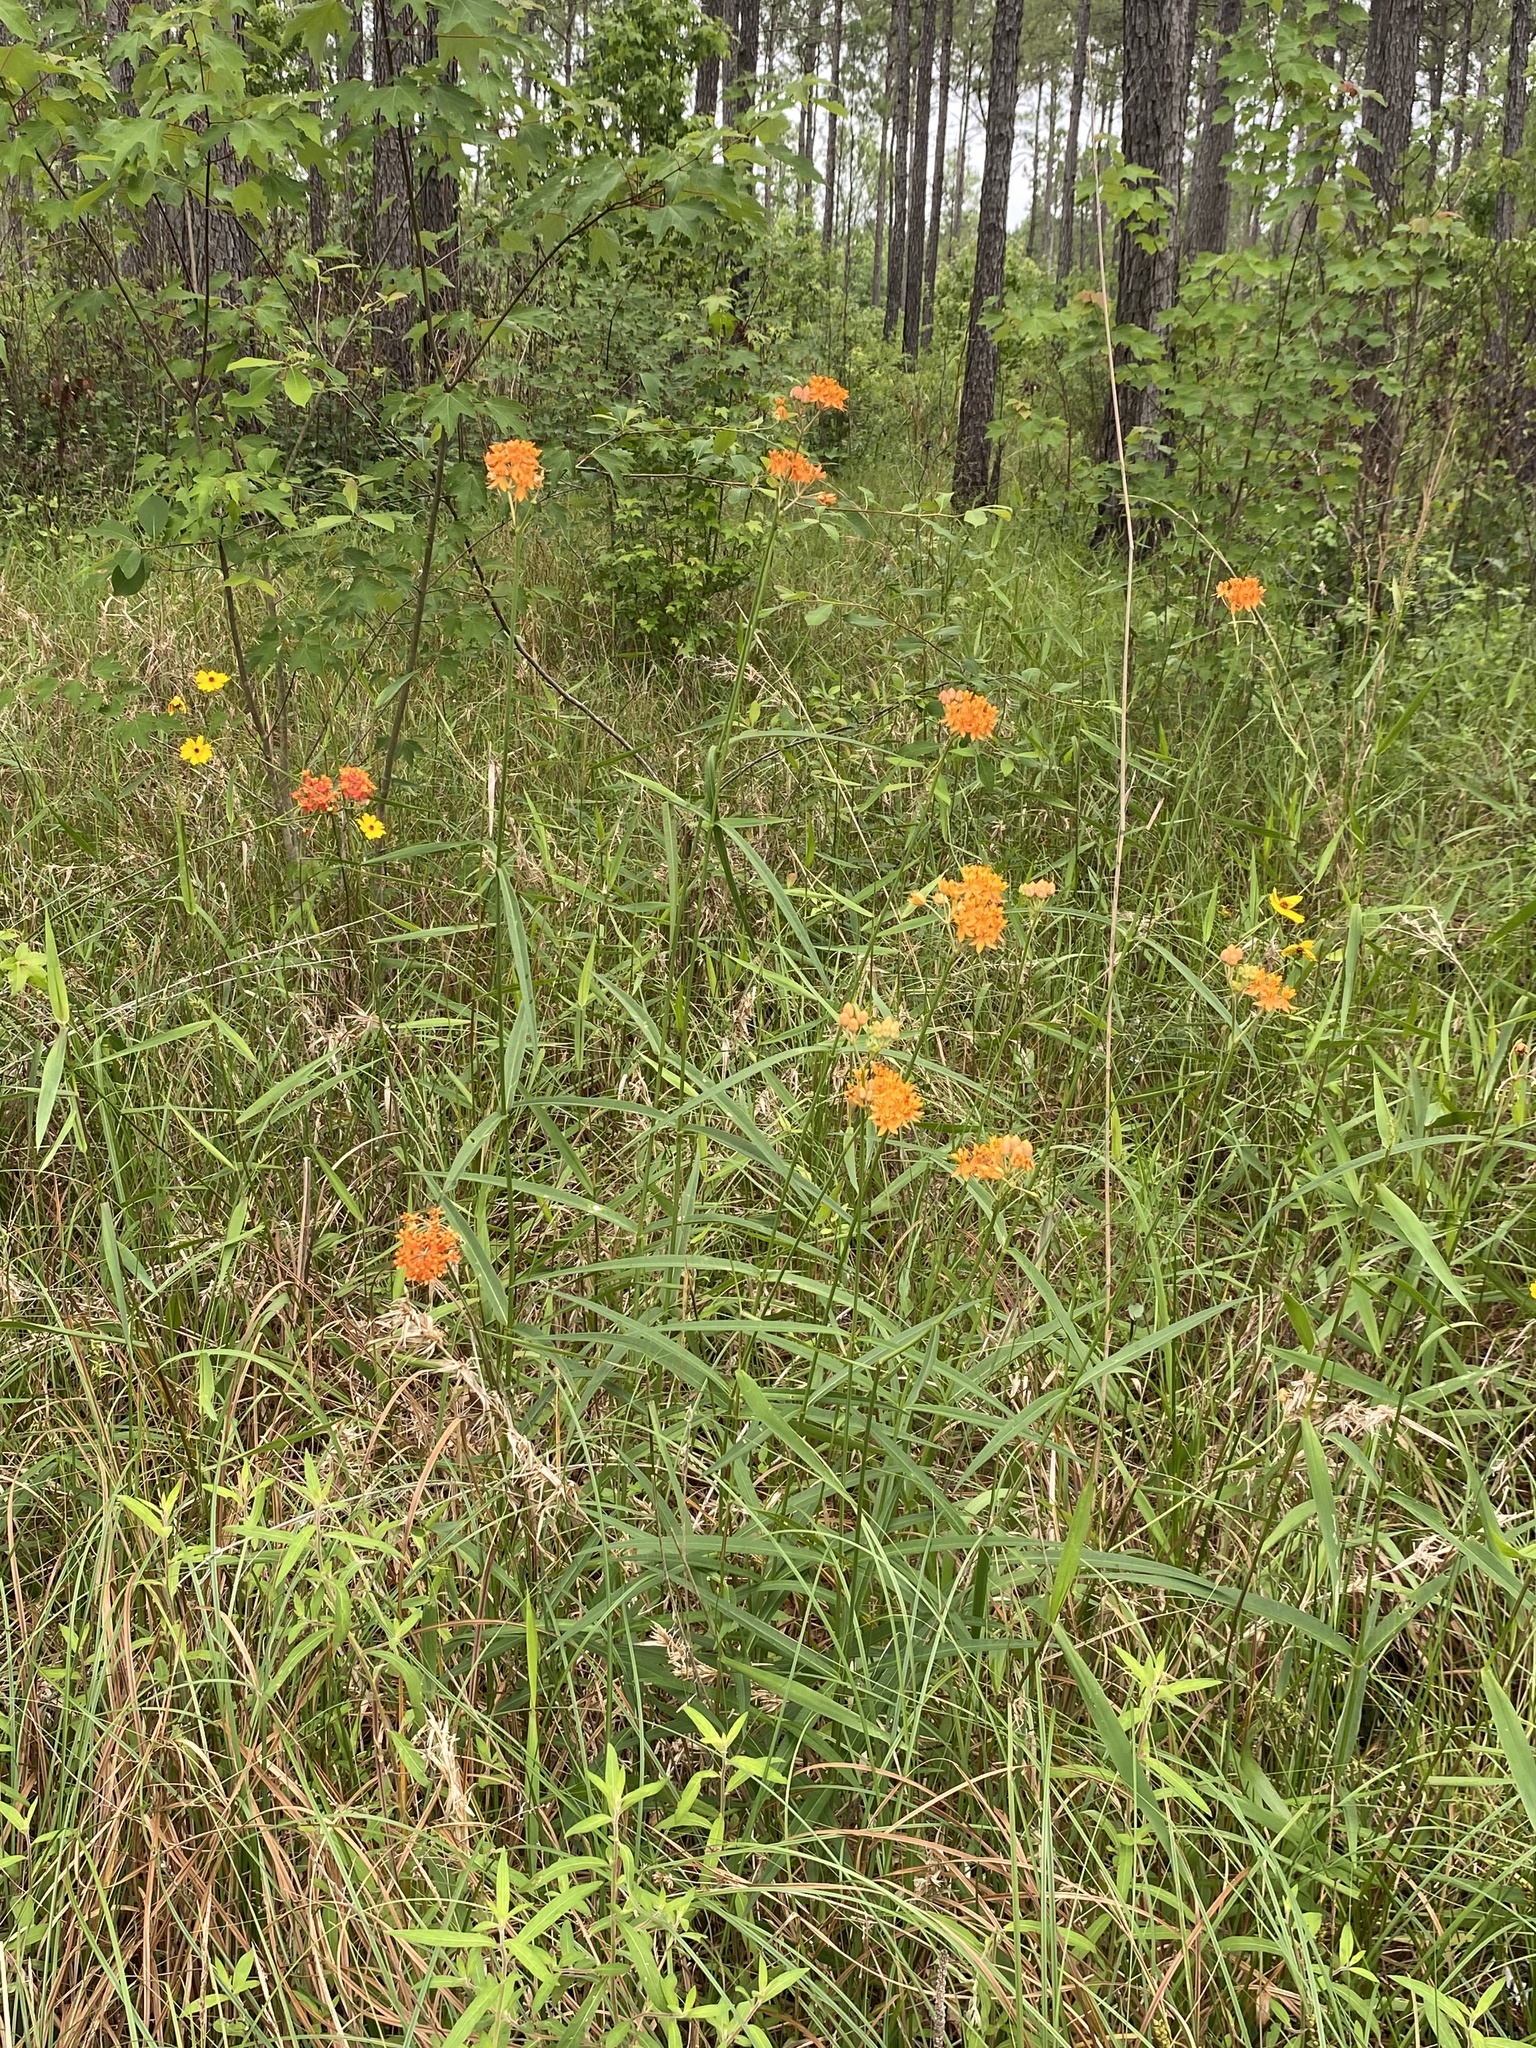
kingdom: Plantae
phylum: Tracheophyta
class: Magnoliopsida
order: Gentianales
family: Apocynaceae
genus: Asclepias
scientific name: Asclepias lanceolata
